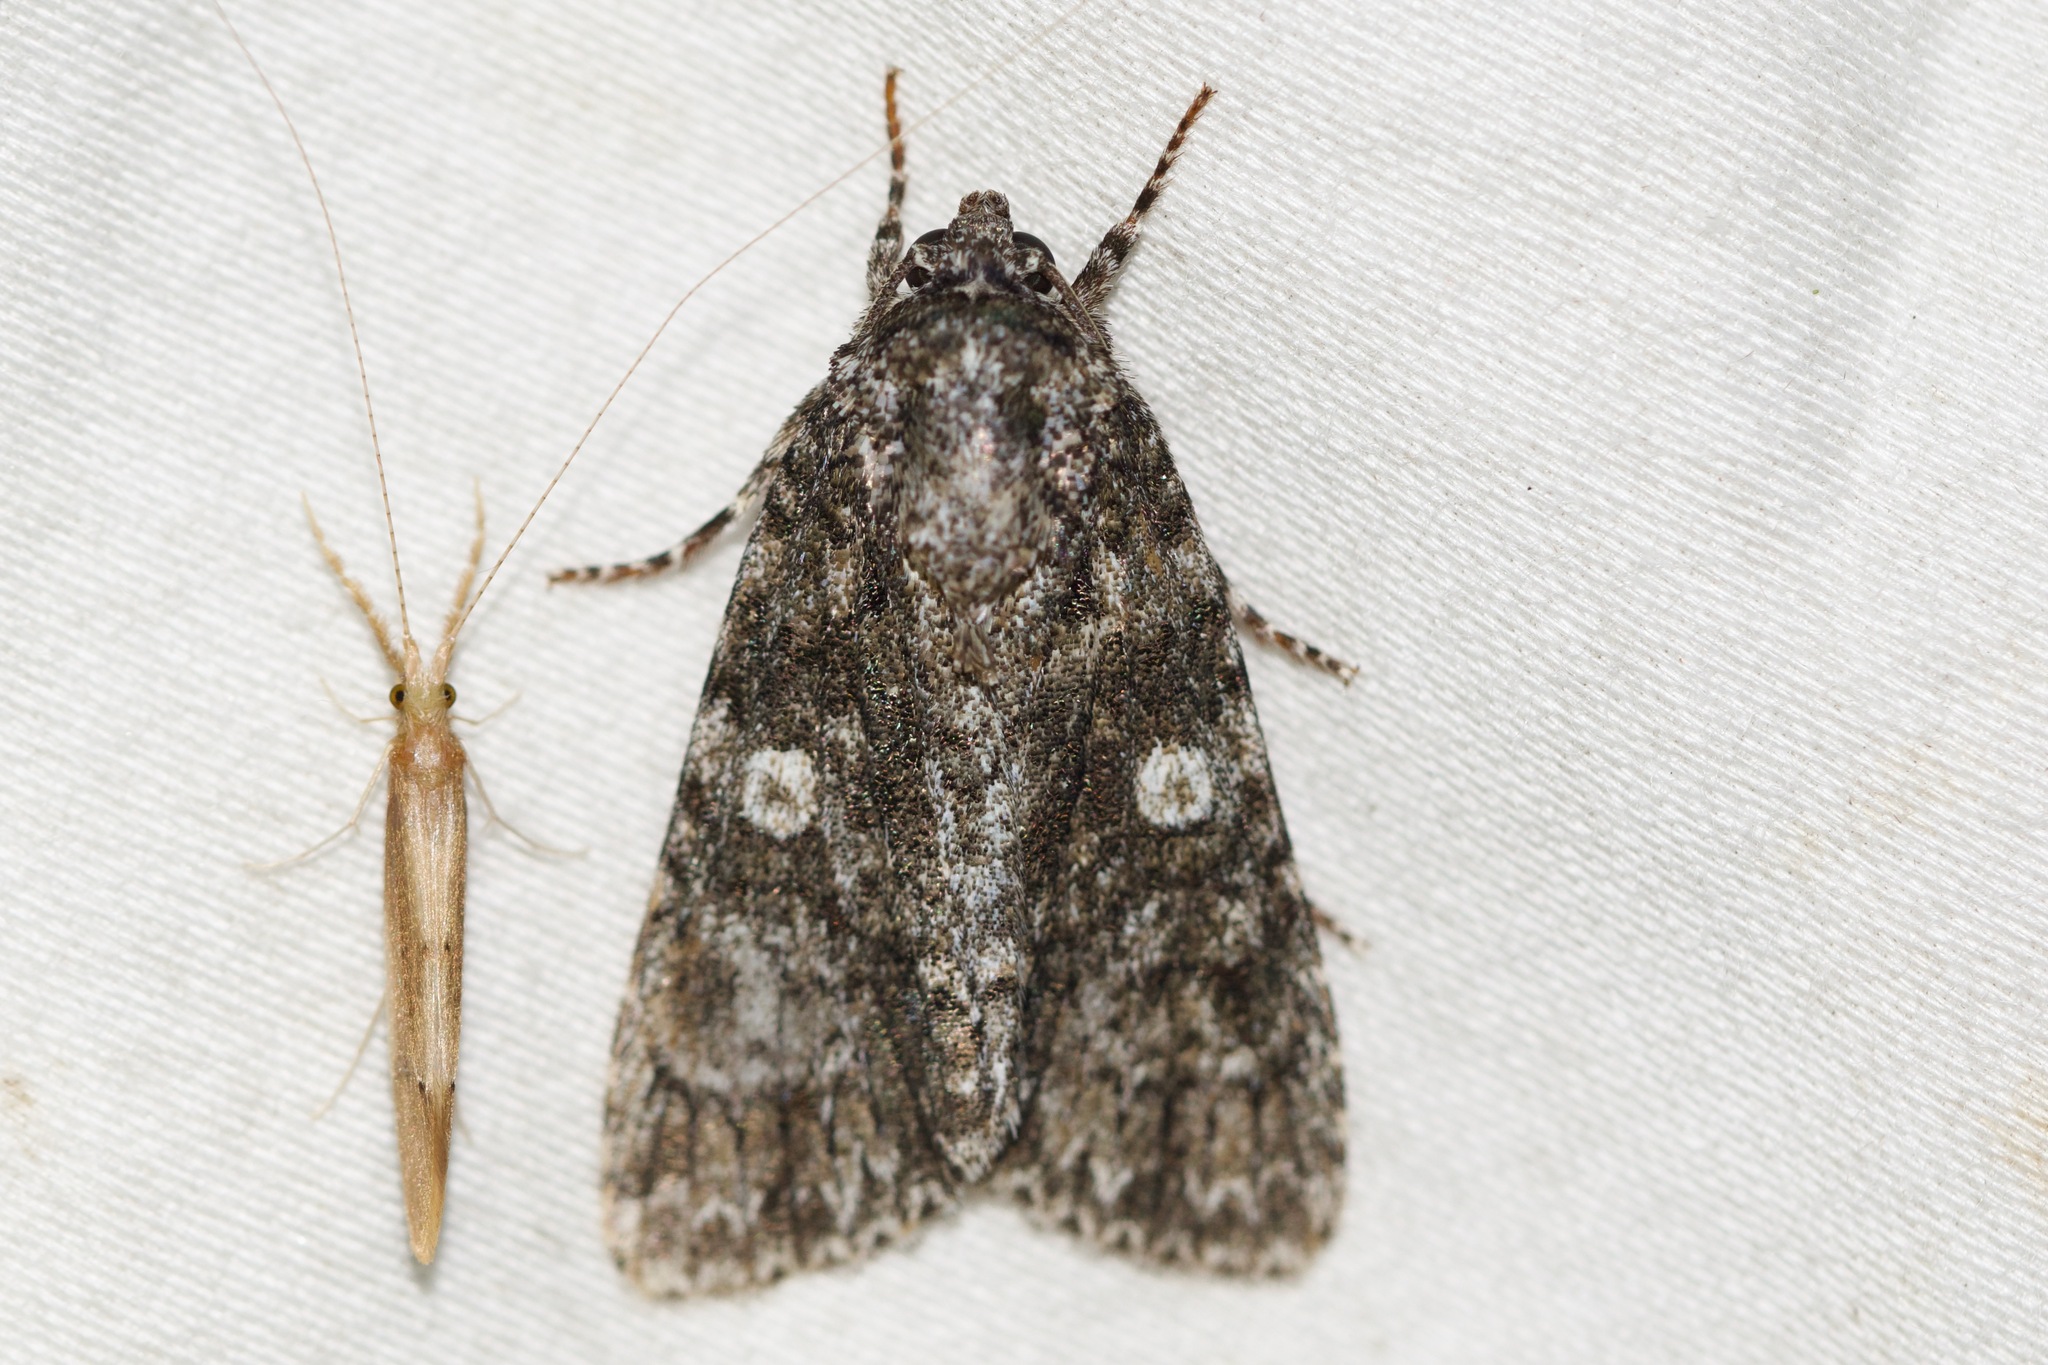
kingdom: Animalia
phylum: Arthropoda
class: Insecta
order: Lepidoptera
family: Noctuidae
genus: Acronicta
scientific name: Acronicta afflicta
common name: Afflicted dagger moth
